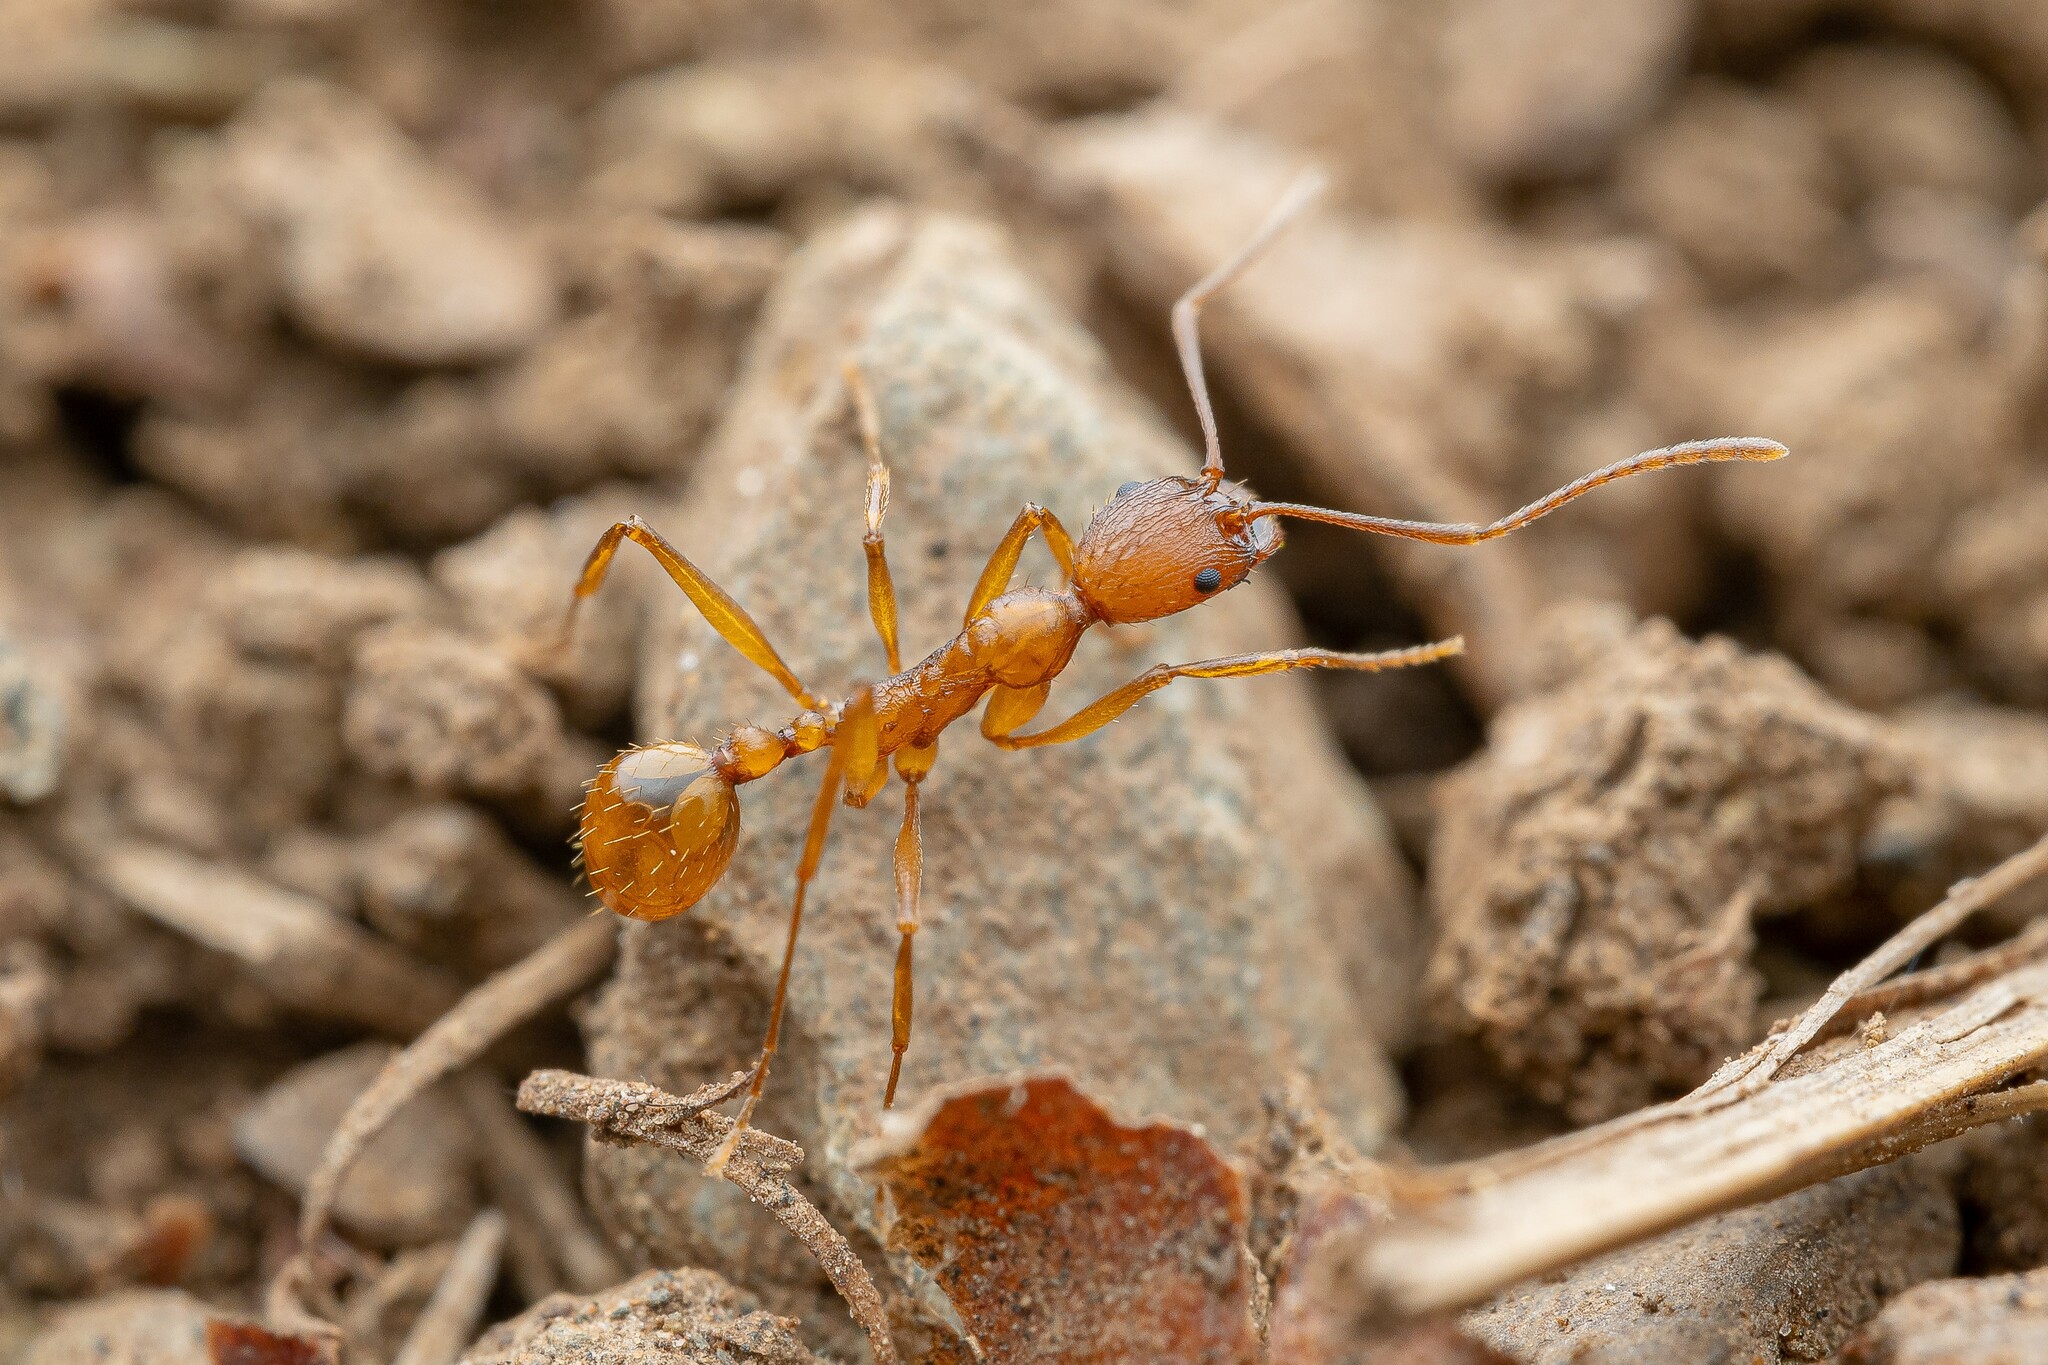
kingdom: Animalia
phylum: Arthropoda
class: Insecta
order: Hymenoptera
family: Formicidae
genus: Aphaenogaster
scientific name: Aphaenogaster huachucana
